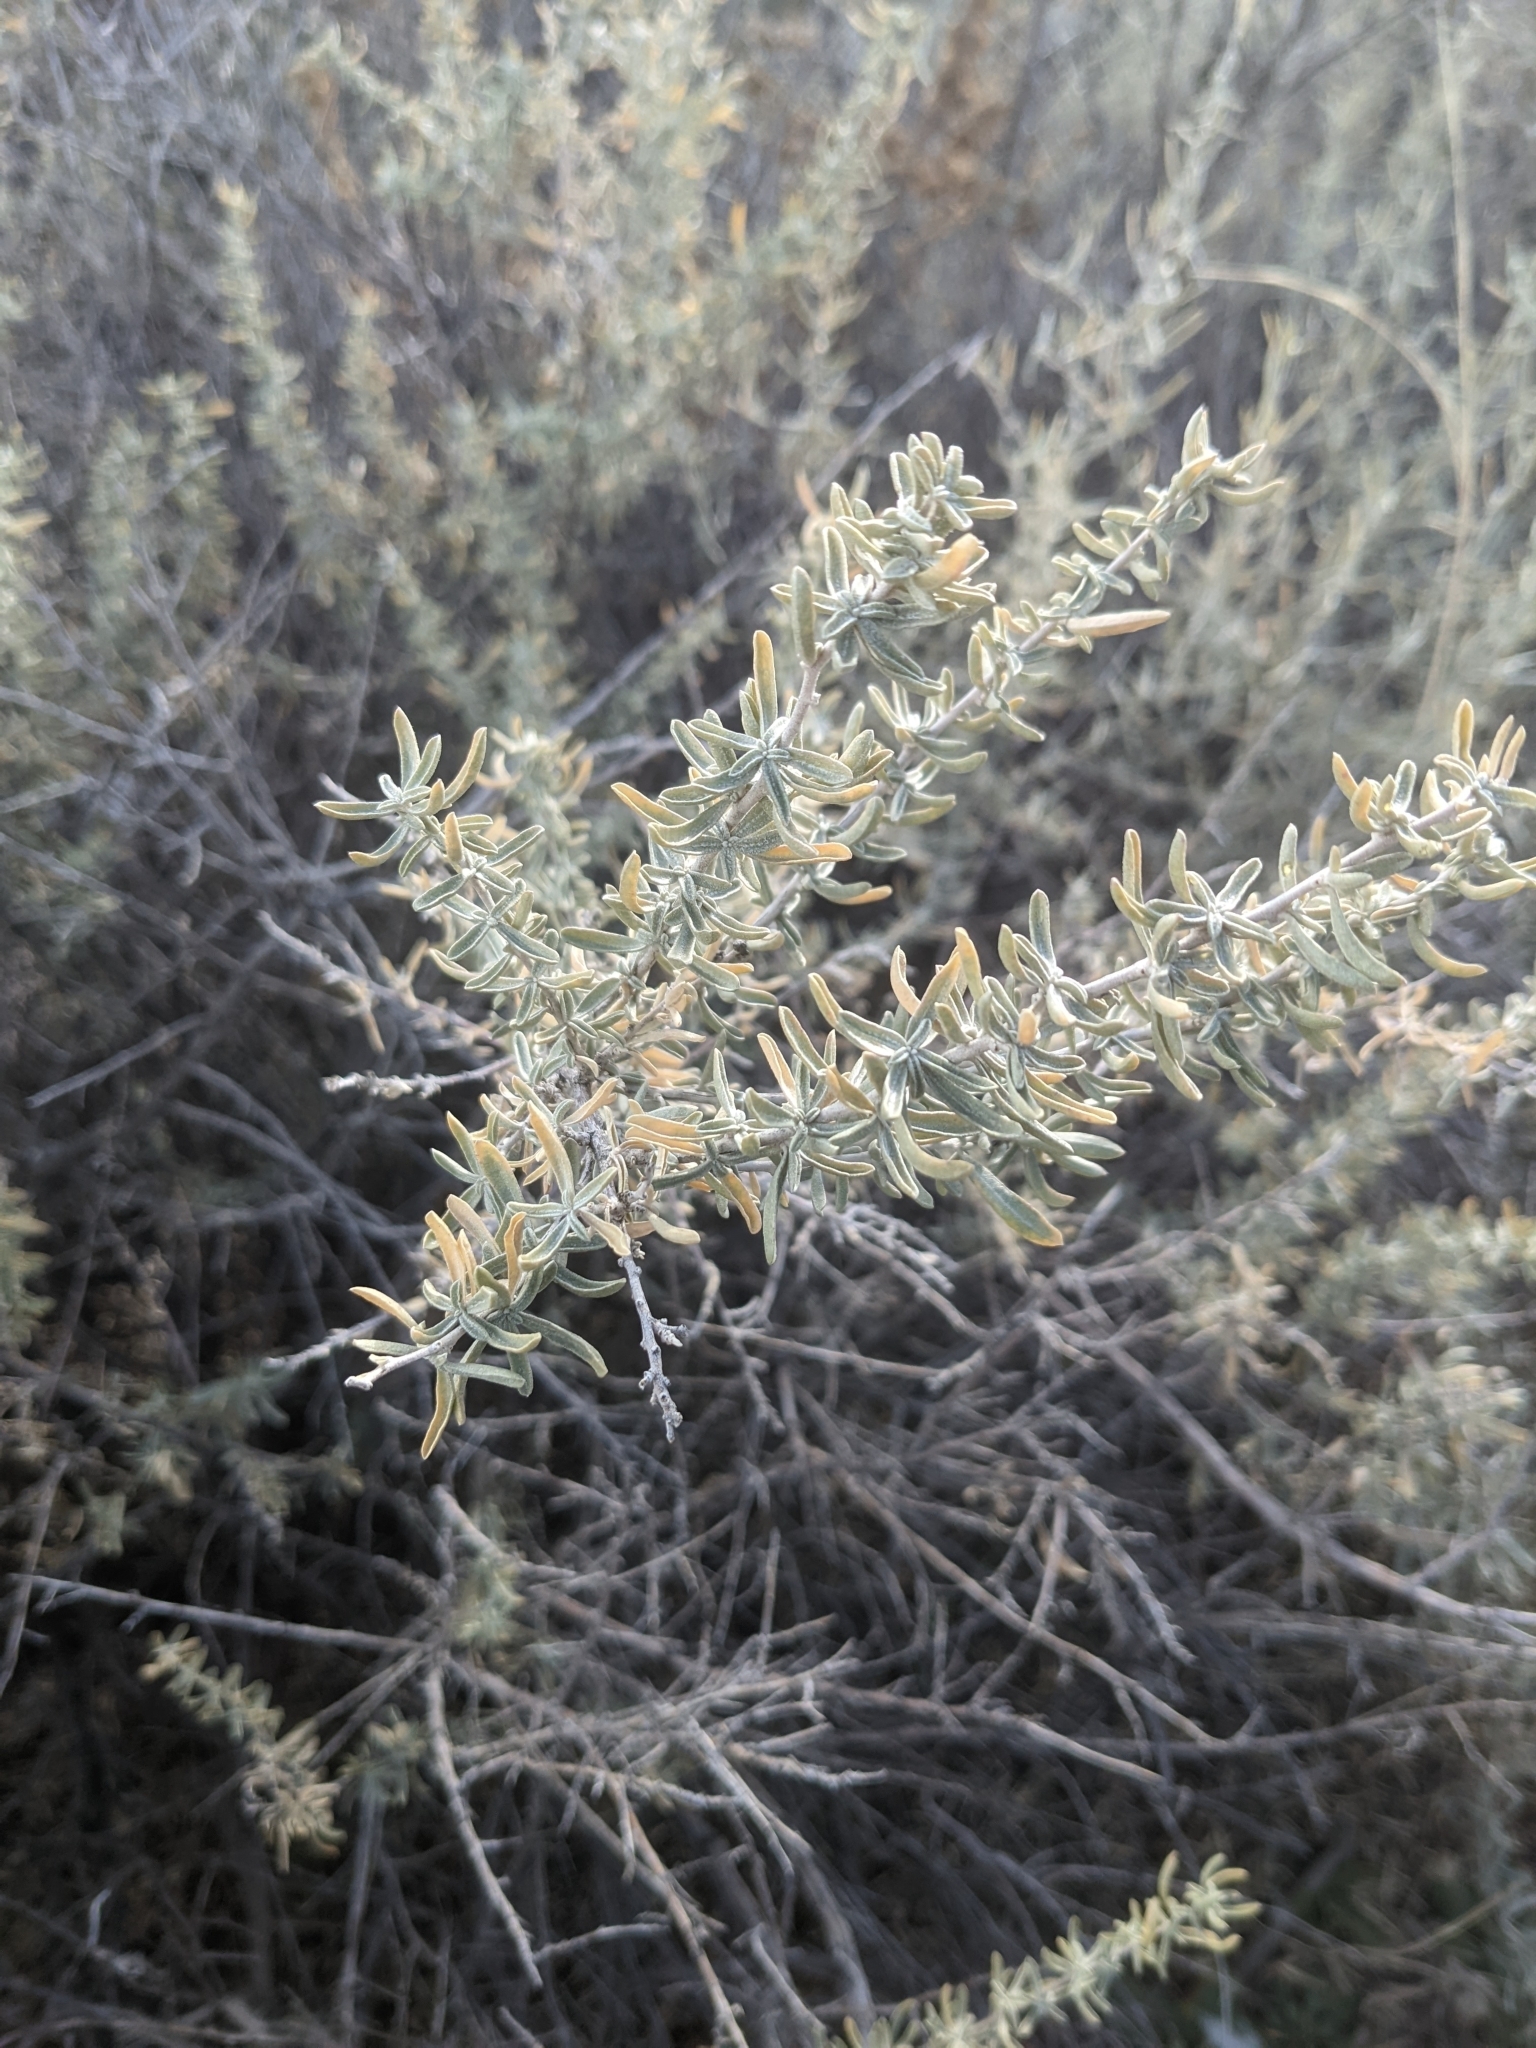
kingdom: Plantae
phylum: Tracheophyta
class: Magnoliopsida
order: Caryophyllales
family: Amaranthaceae
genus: Atriplex
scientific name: Atriplex canescens
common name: Four-wing saltbush
